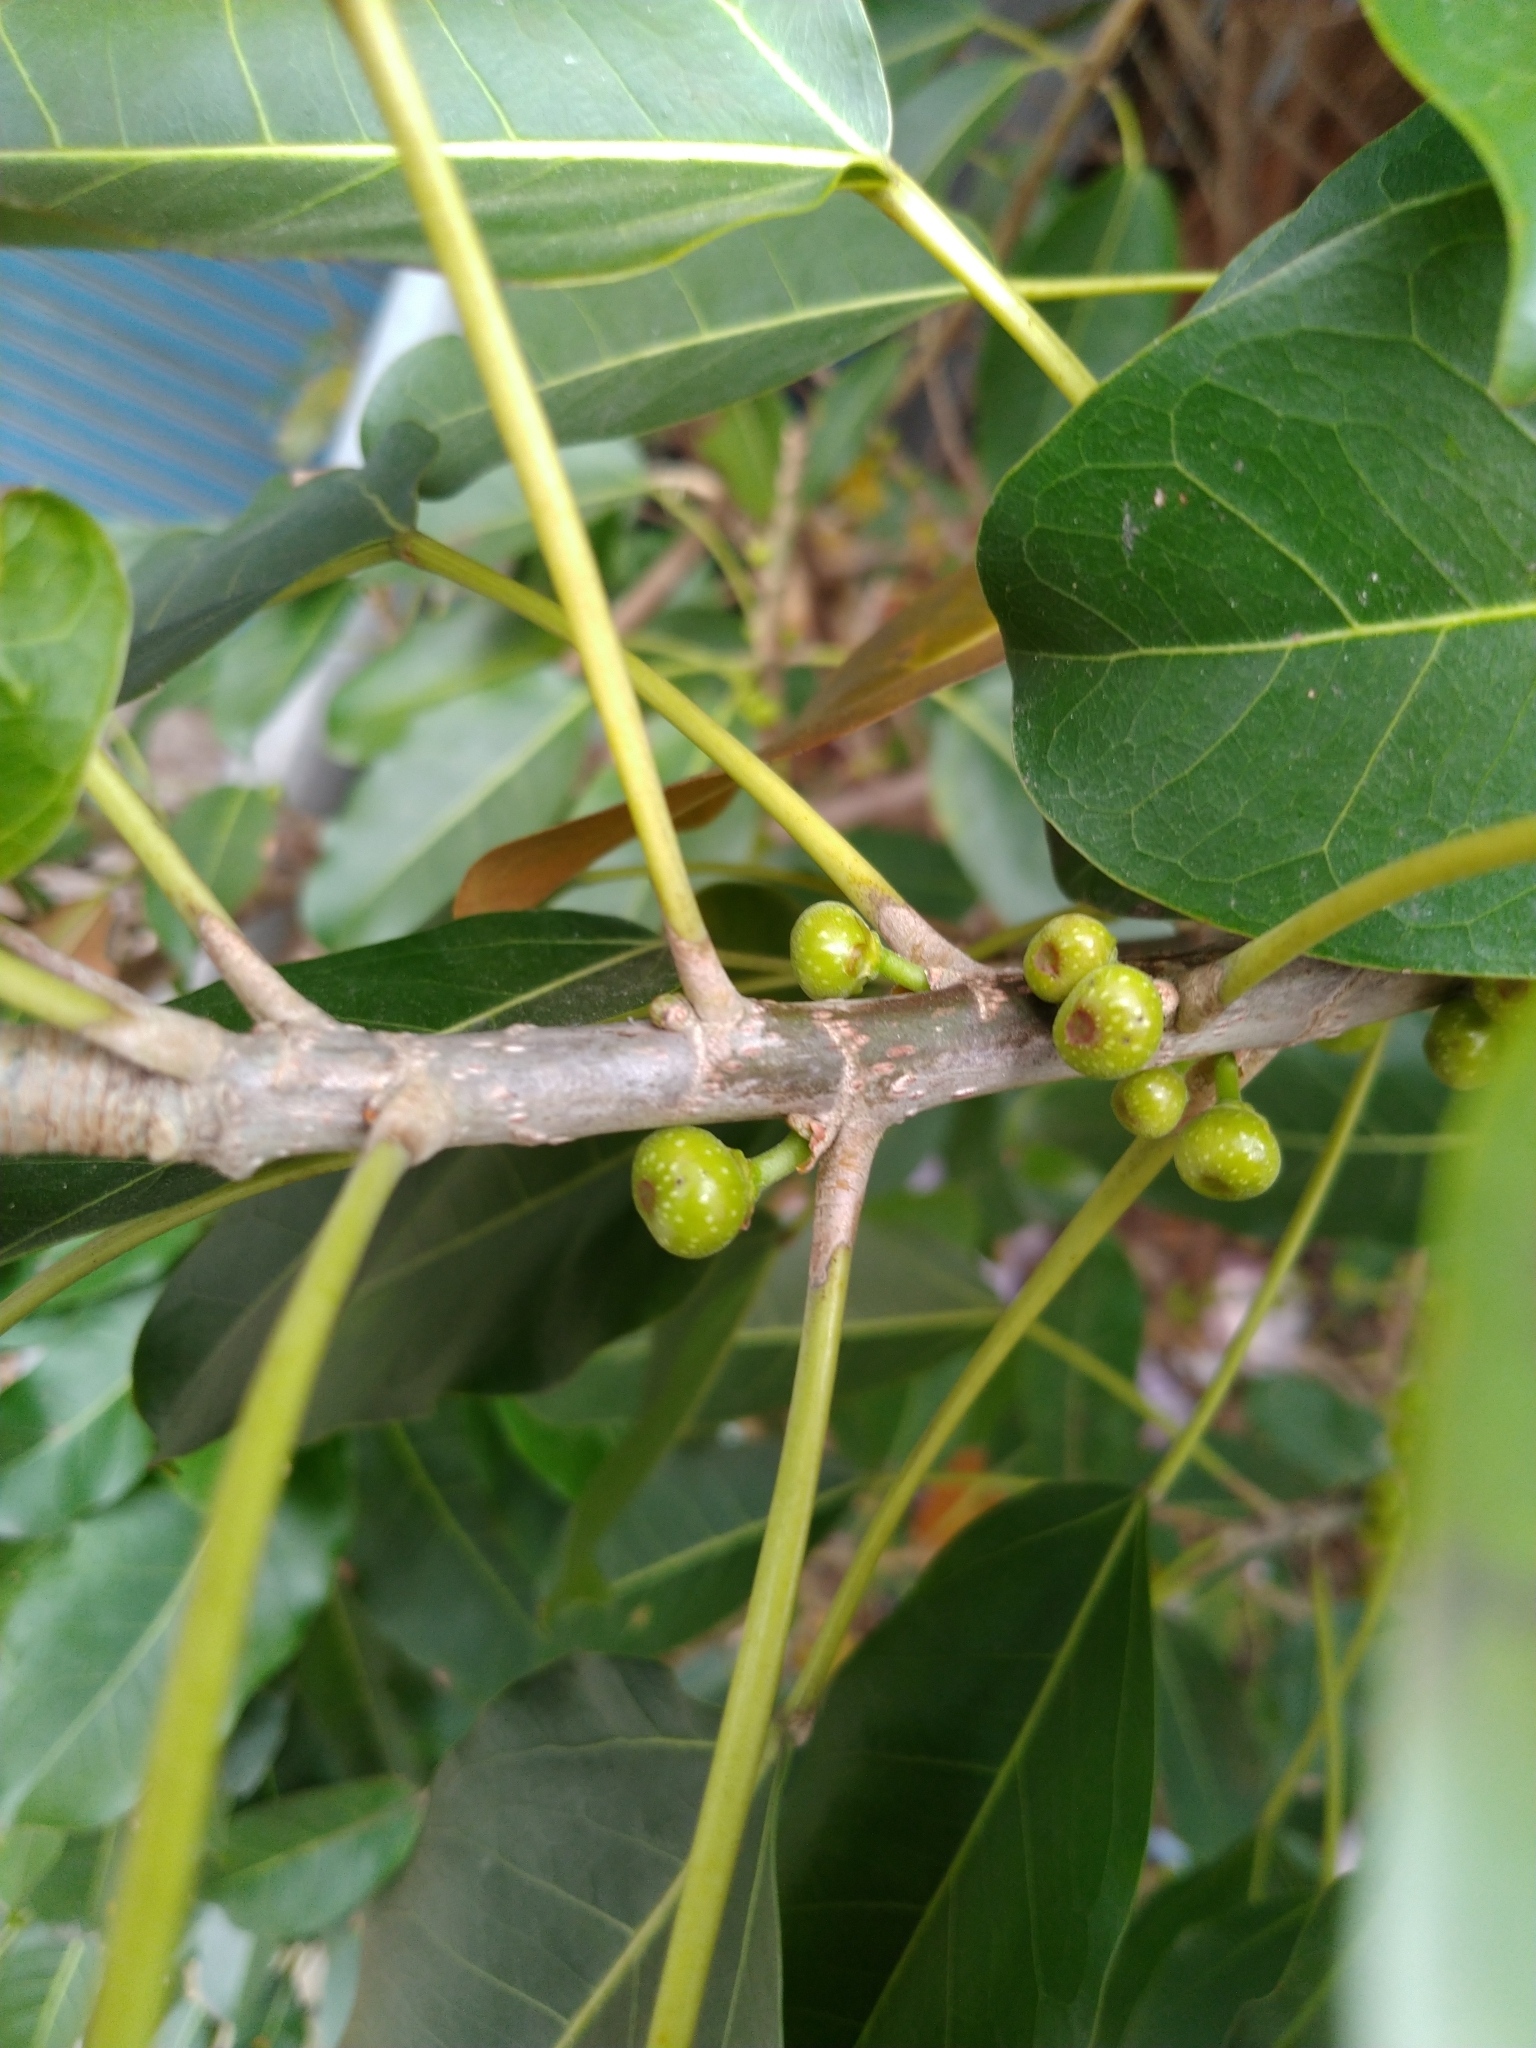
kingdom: Plantae
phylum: Tracheophyta
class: Magnoliopsida
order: Rosales
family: Moraceae
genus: Ficus
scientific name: Ficus subpisocarpa
